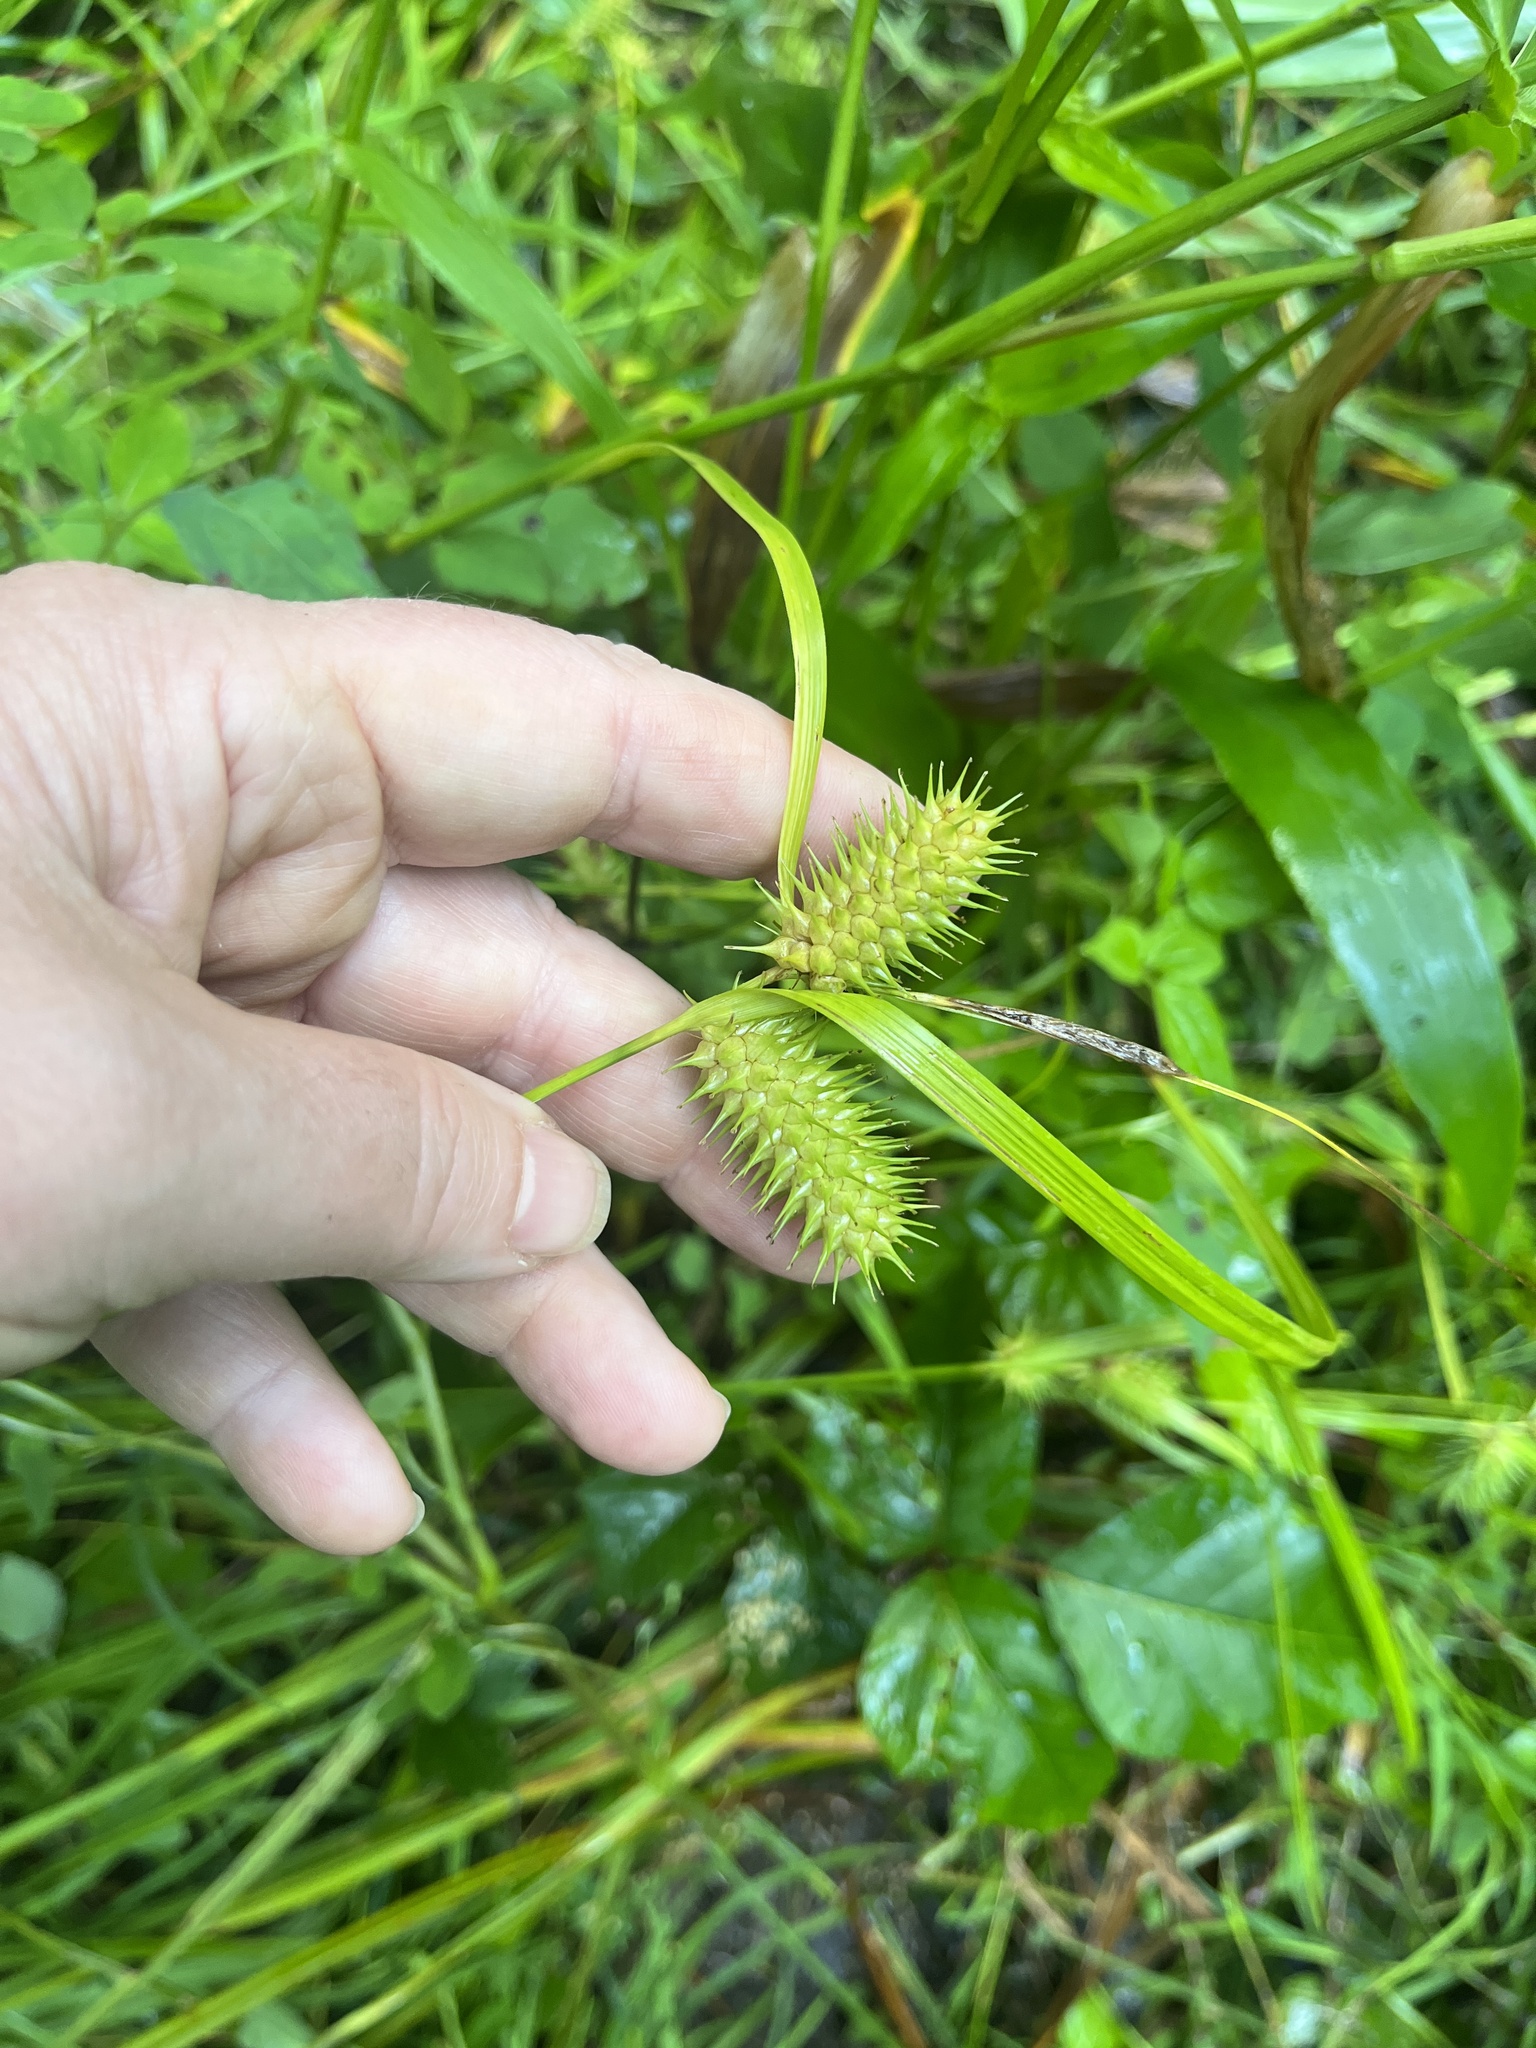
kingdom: Plantae
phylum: Tracheophyta
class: Liliopsida
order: Poales
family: Cyperaceae
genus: Carex
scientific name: Carex lurida
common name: Sallow sedge
